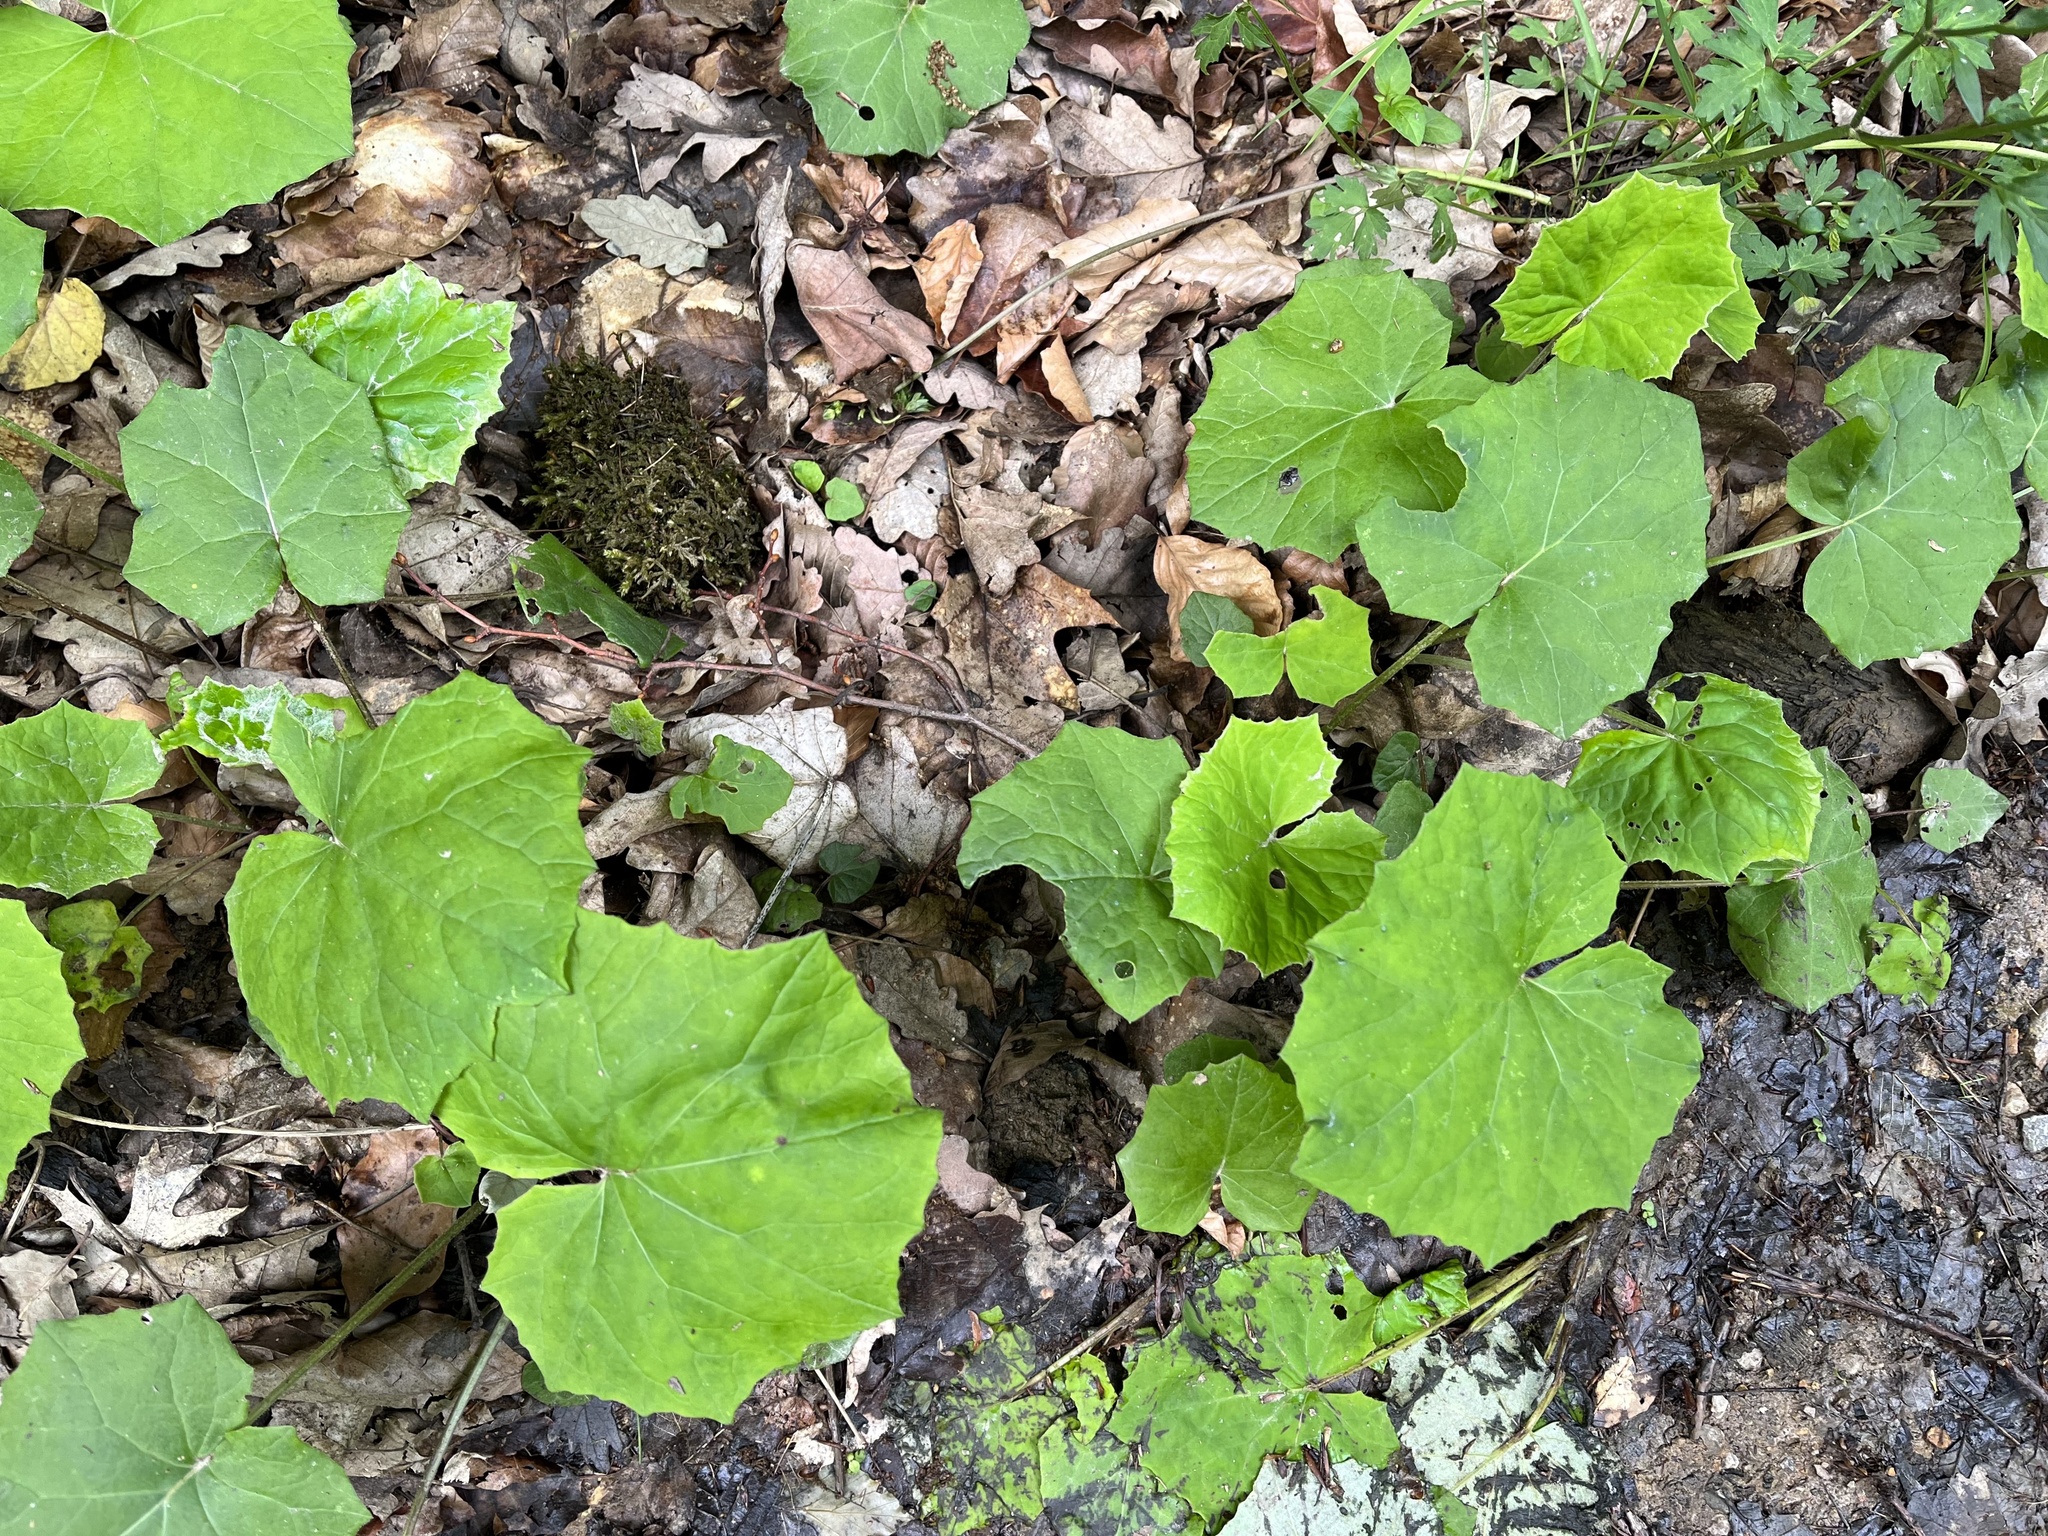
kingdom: Plantae
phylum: Tracheophyta
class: Magnoliopsida
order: Asterales
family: Asteraceae
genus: Tussilago
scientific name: Tussilago farfara
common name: Coltsfoot
